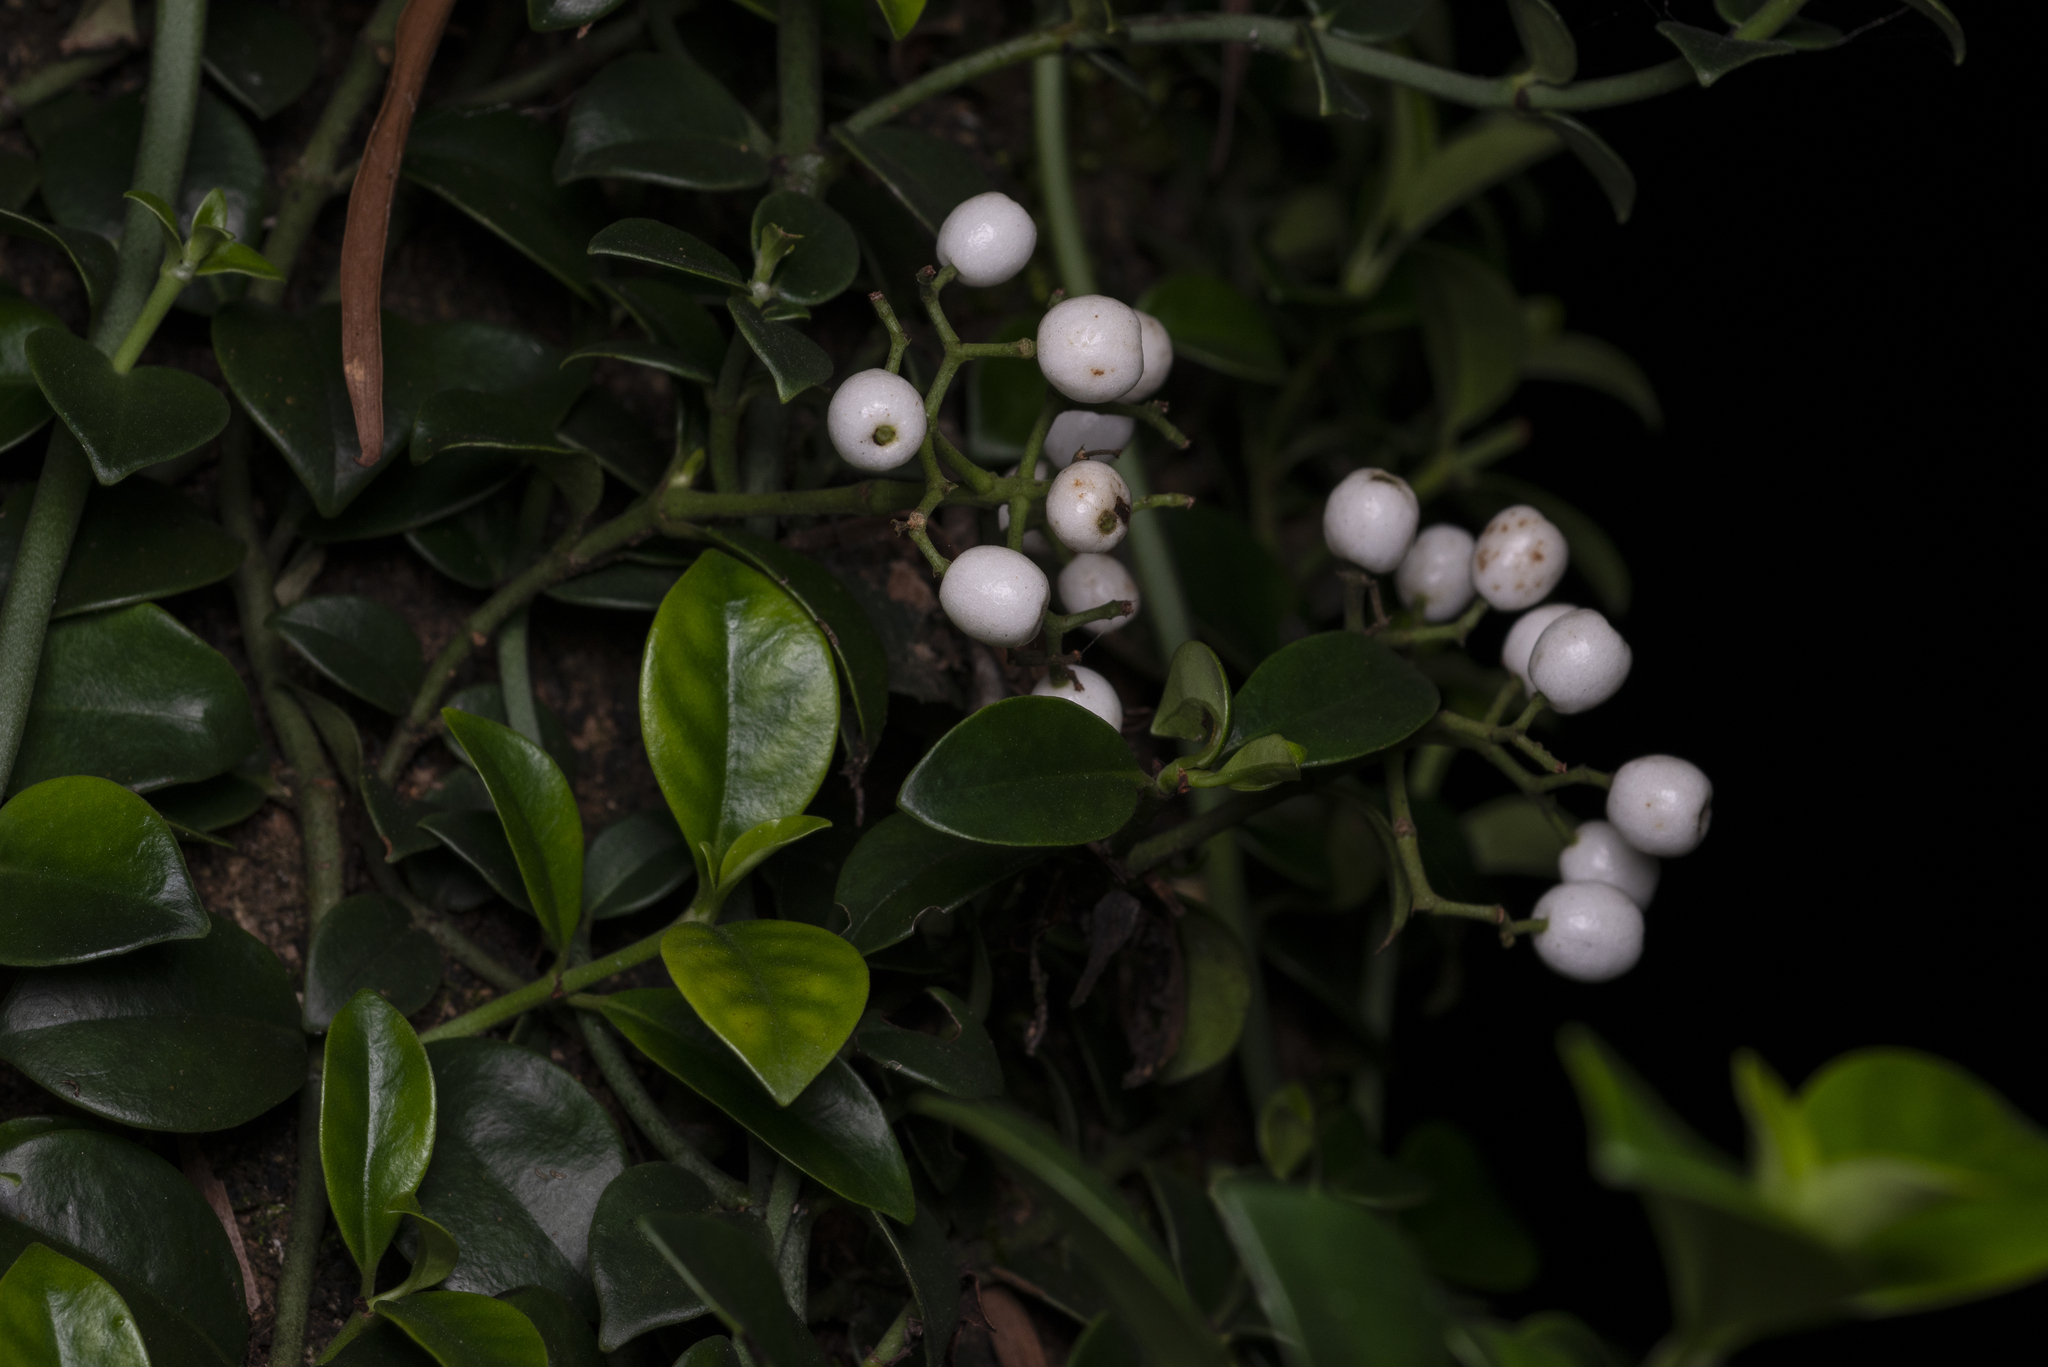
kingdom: Plantae
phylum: Tracheophyta
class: Magnoliopsida
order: Gentianales
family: Rubiaceae
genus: Psychotria
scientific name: Psychotria serpens
